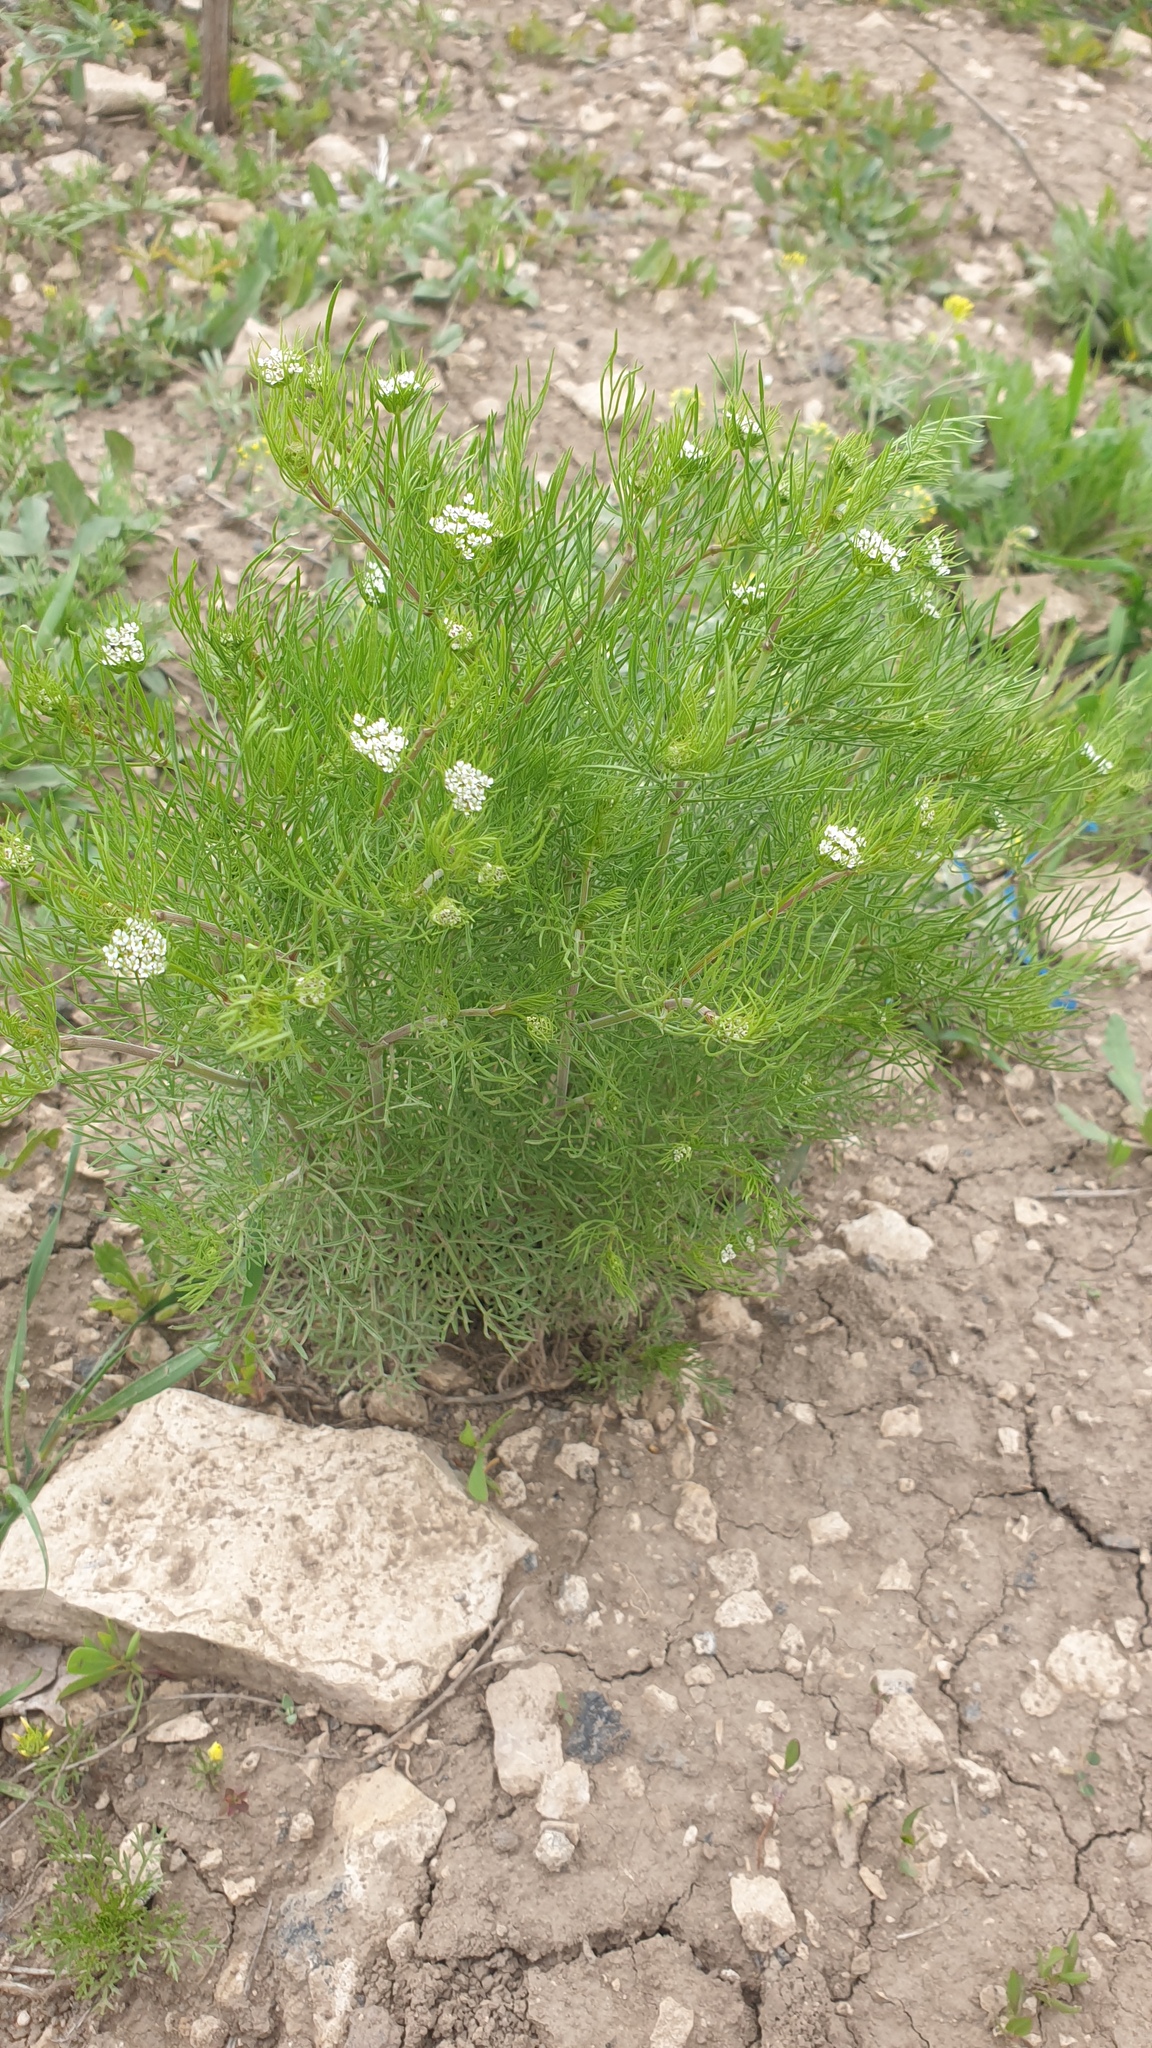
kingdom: Plantae
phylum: Tracheophyta
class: Magnoliopsida
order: Apiales
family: Apiaceae
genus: Coriandrum
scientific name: Coriandrum sativum
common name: Coriander
